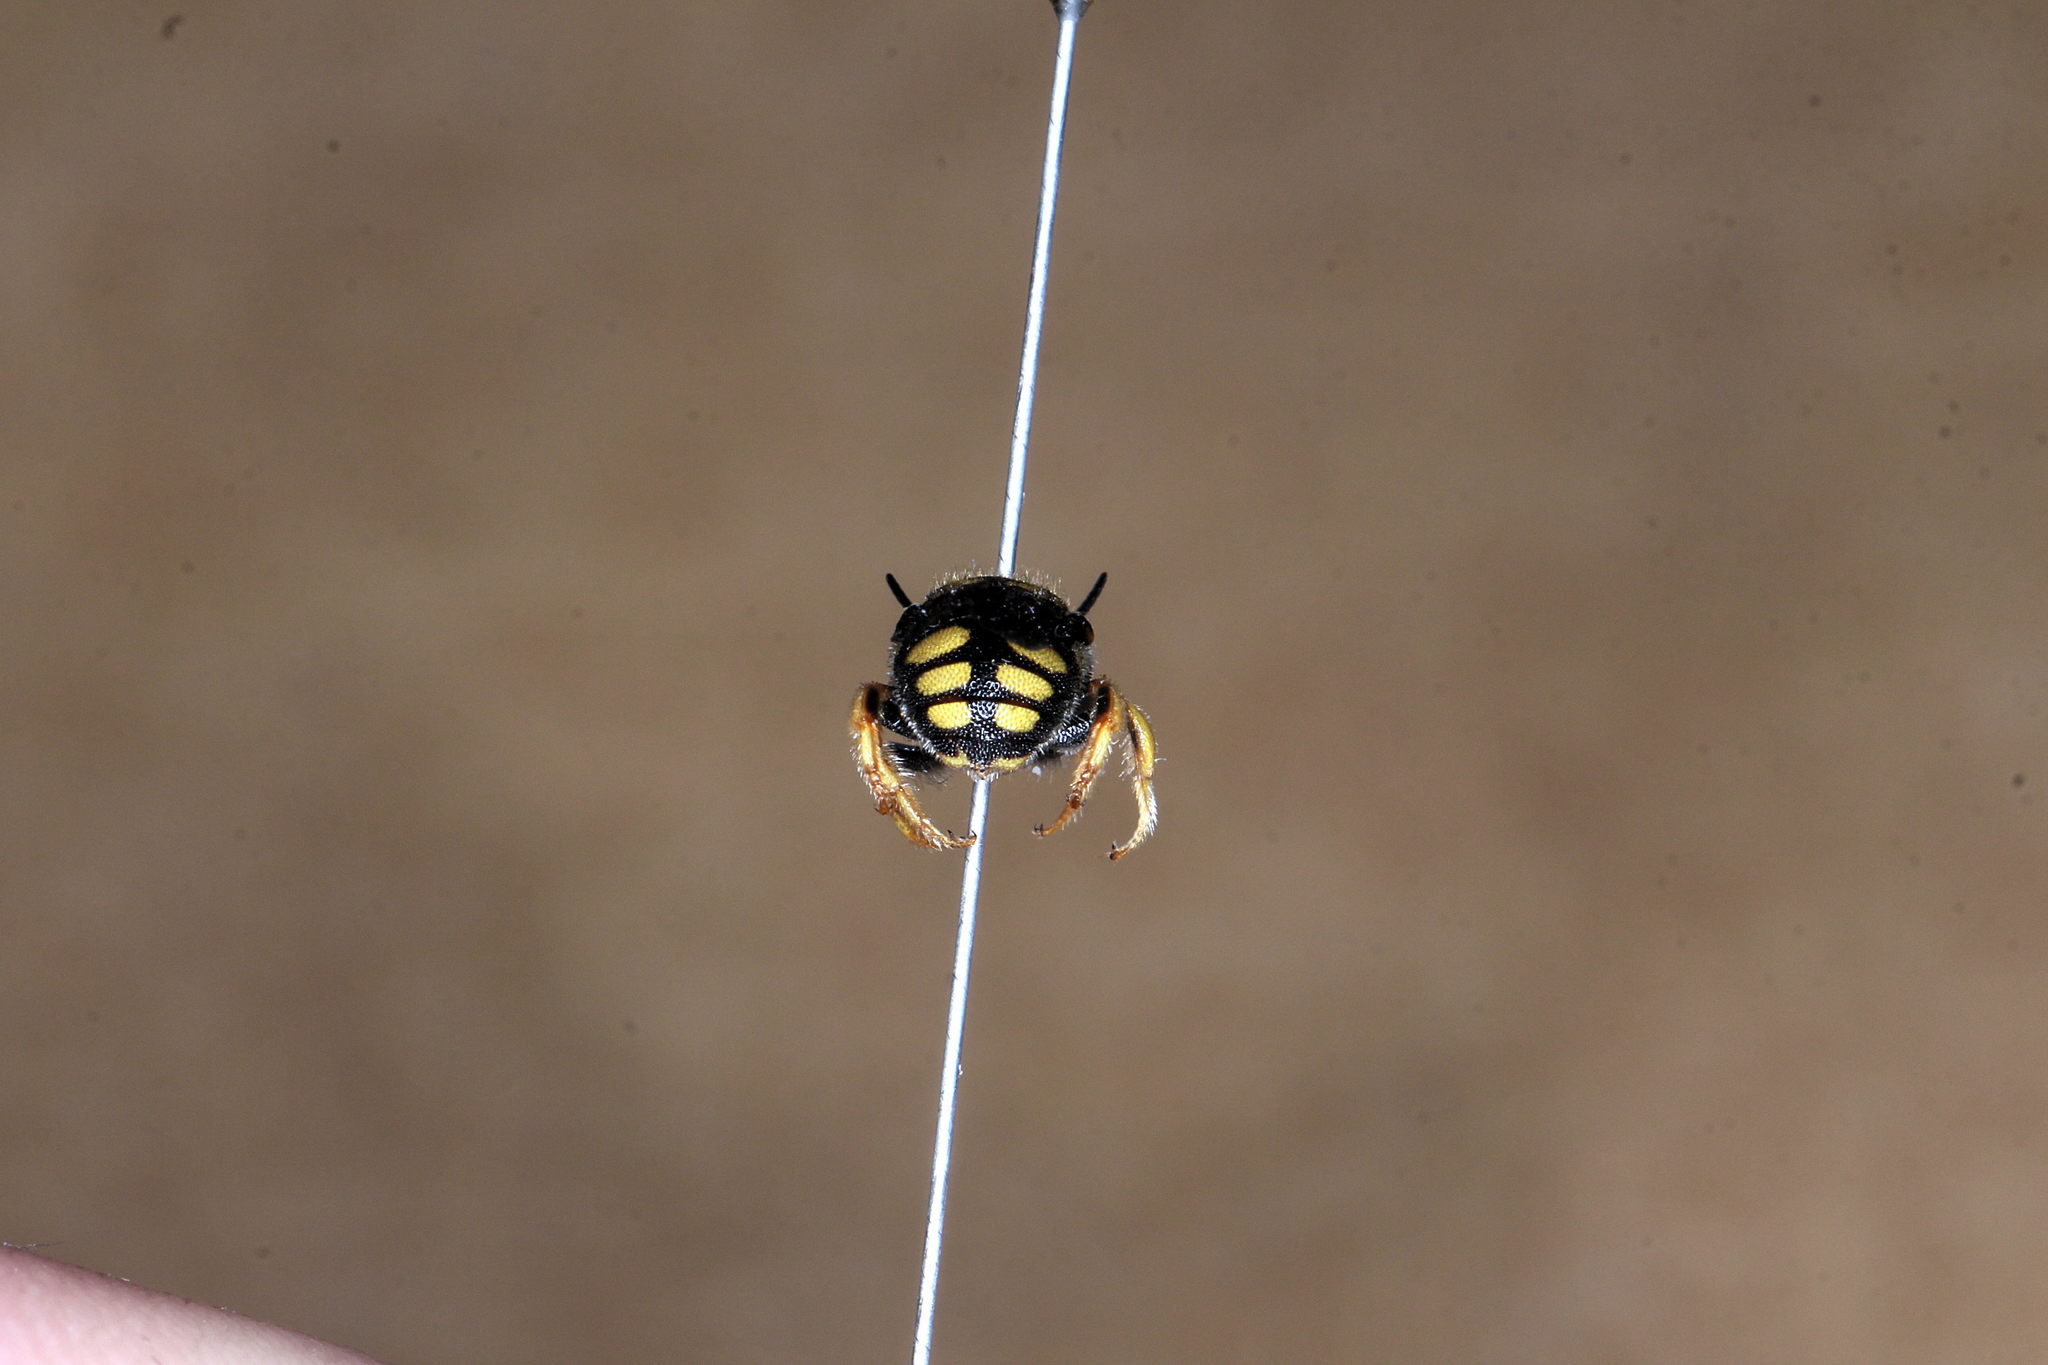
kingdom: Animalia
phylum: Arthropoda
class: Insecta
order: Hymenoptera
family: Megachilidae
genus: Anthidiellum
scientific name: Anthidiellum strigatum
